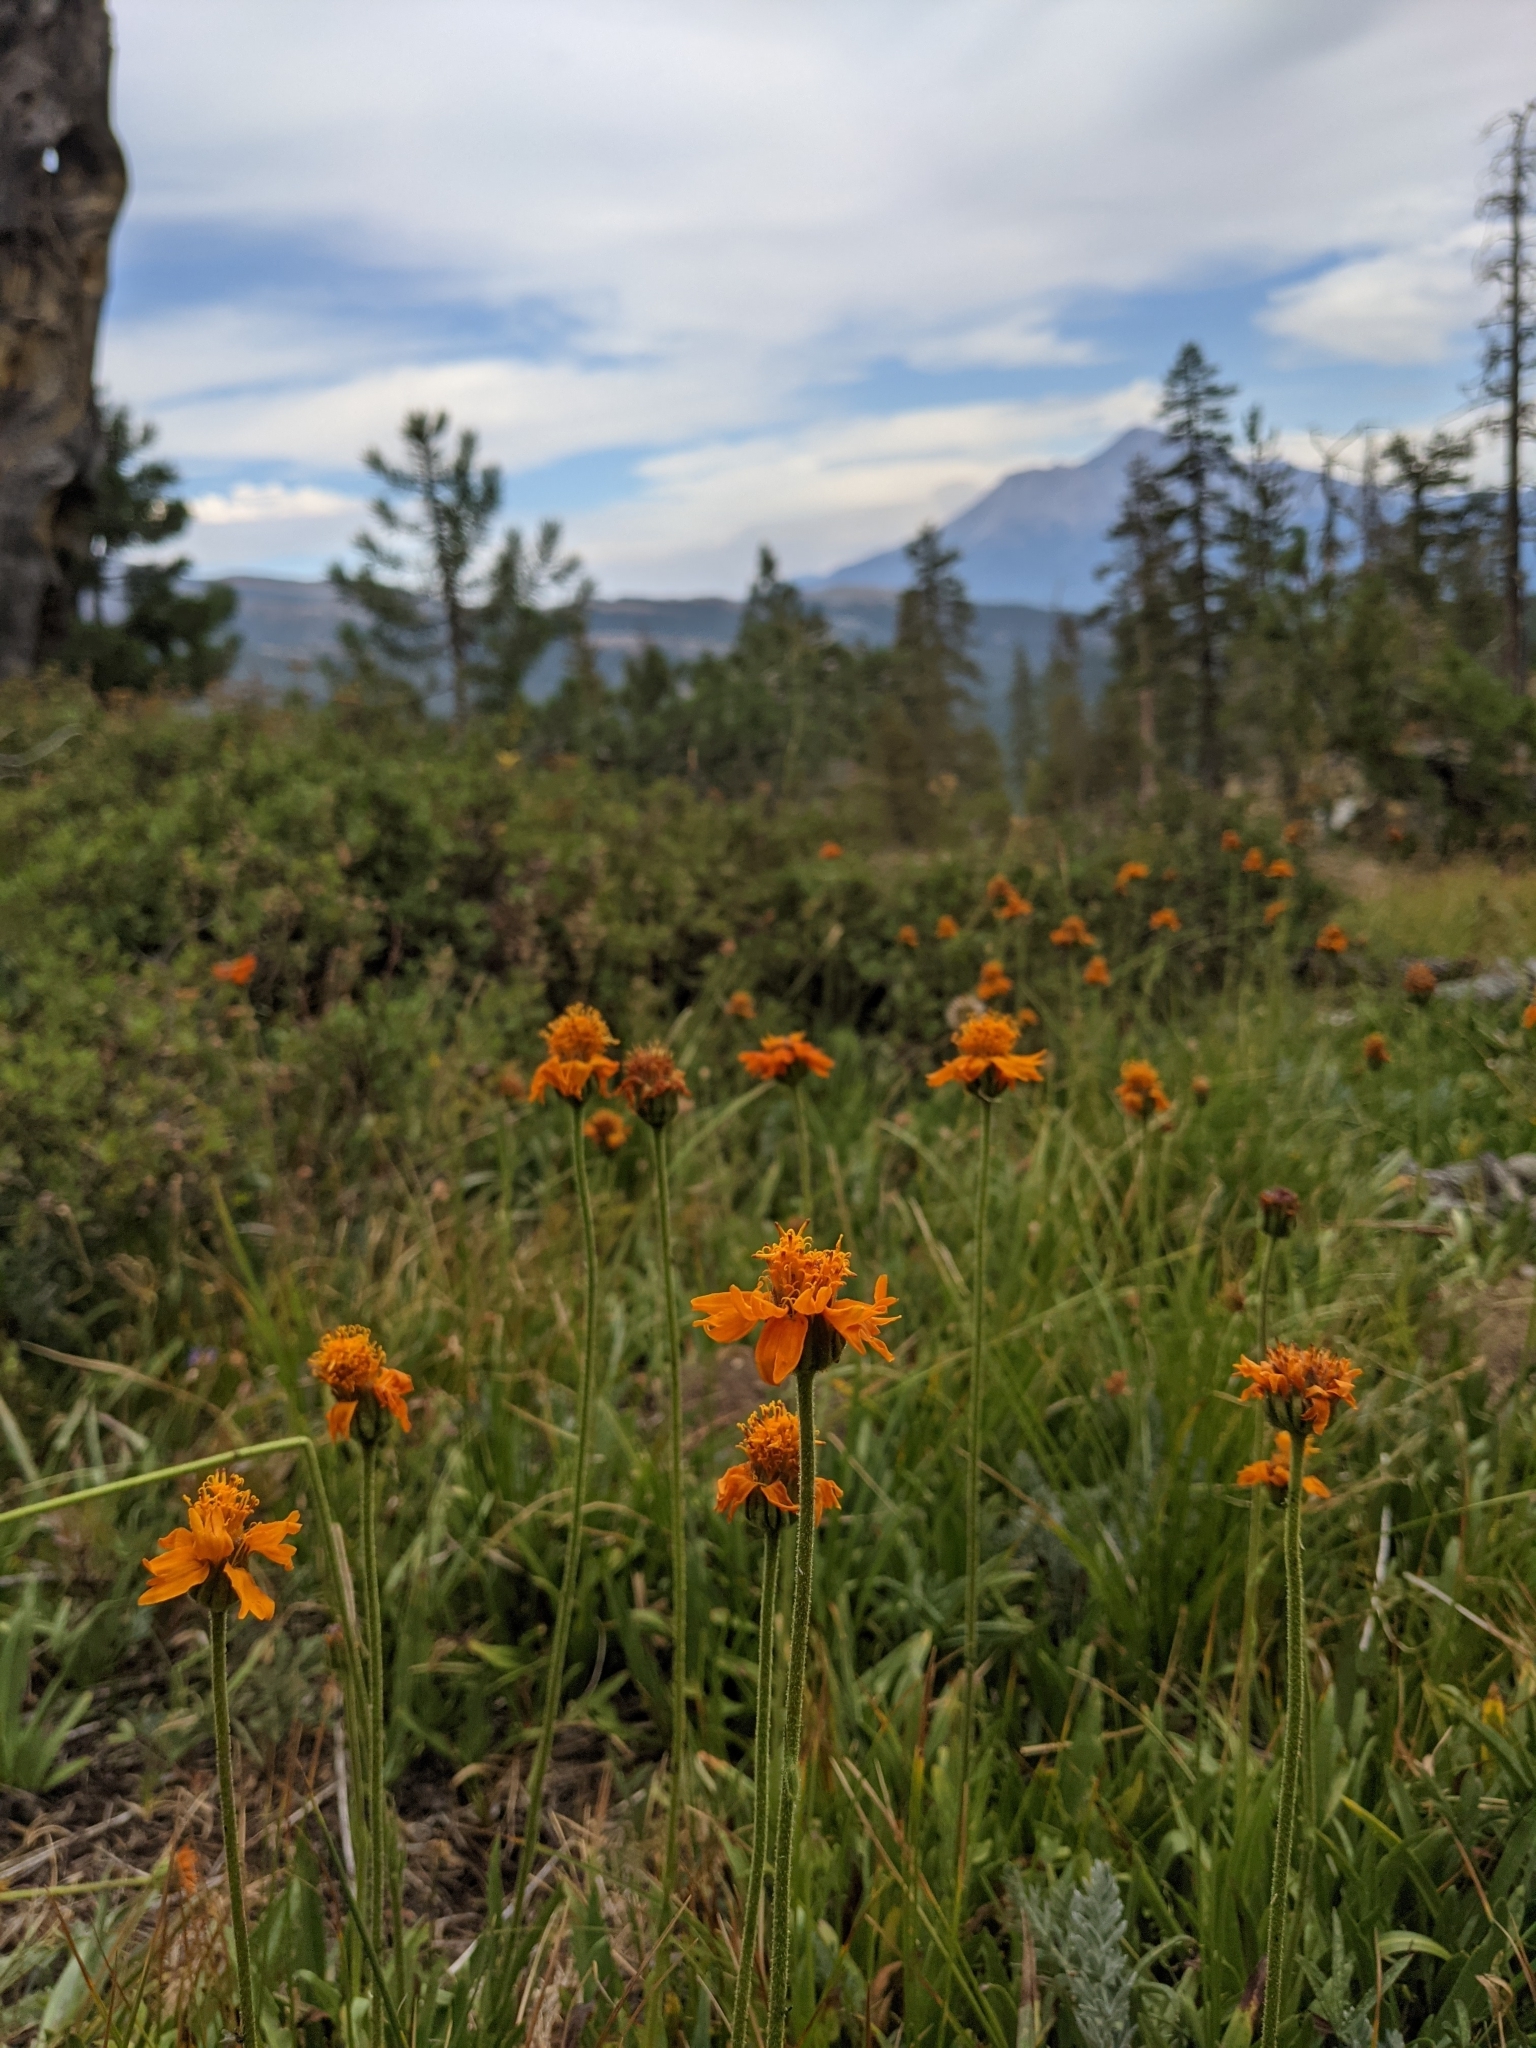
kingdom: Plantae
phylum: Tracheophyta
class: Magnoliopsida
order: Asterales
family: Asteraceae
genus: Raillardella
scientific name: Raillardella pringlei
